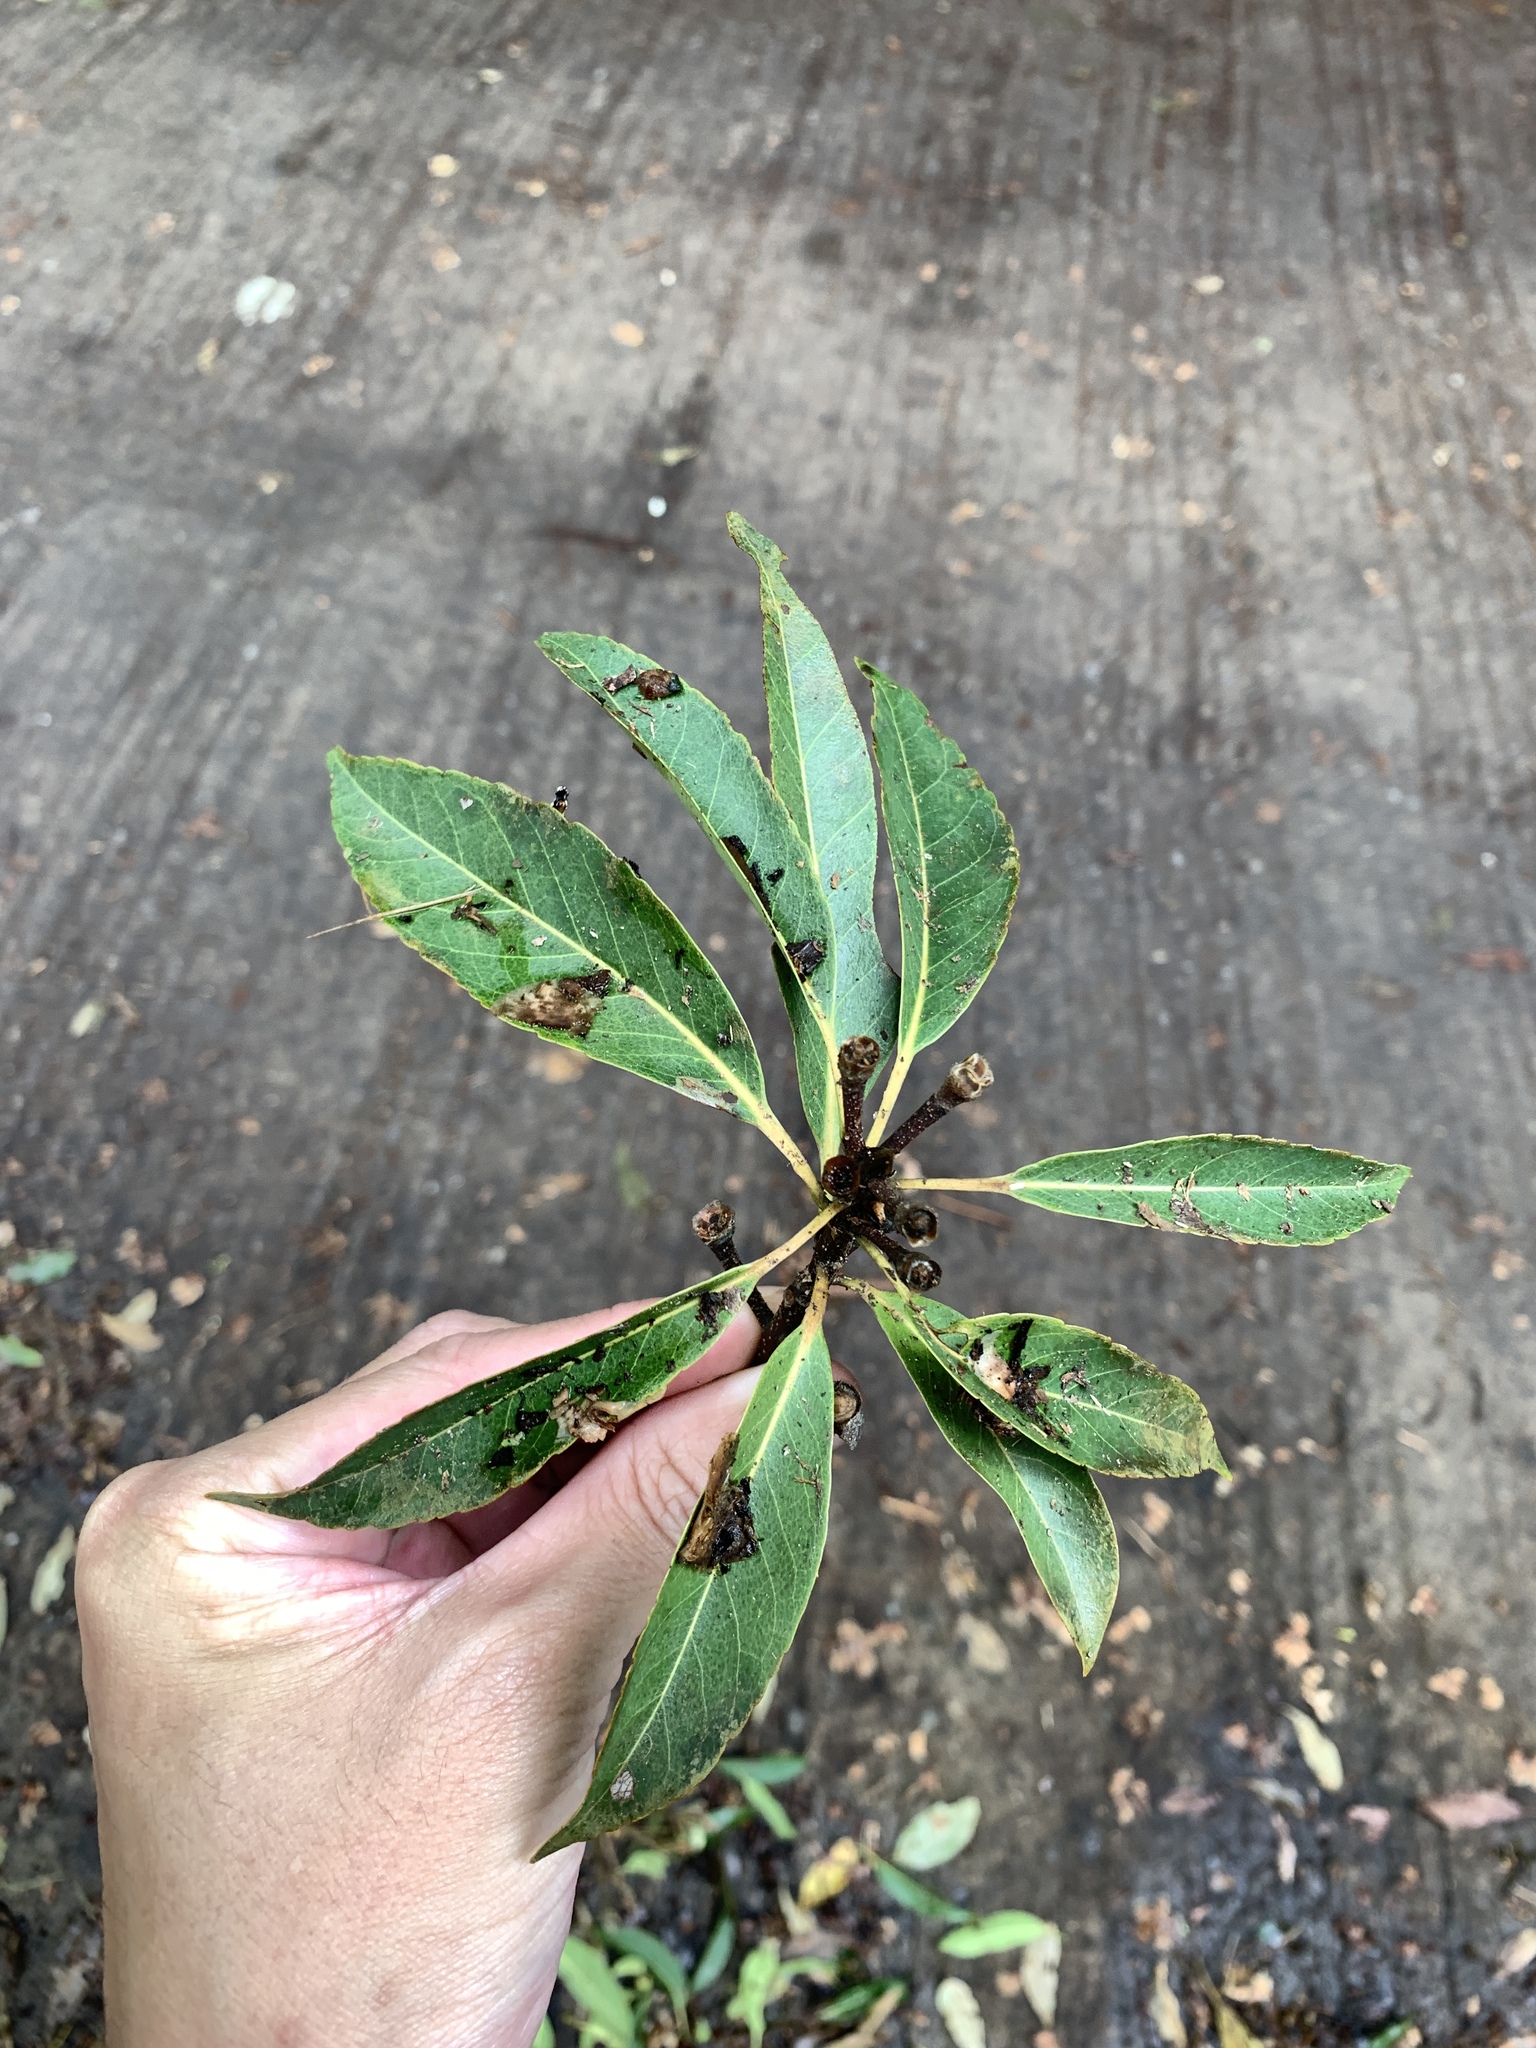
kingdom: Plantae
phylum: Tracheophyta
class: Magnoliopsida
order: Ericales
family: Theaceae
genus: Schima
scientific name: Schima superba
